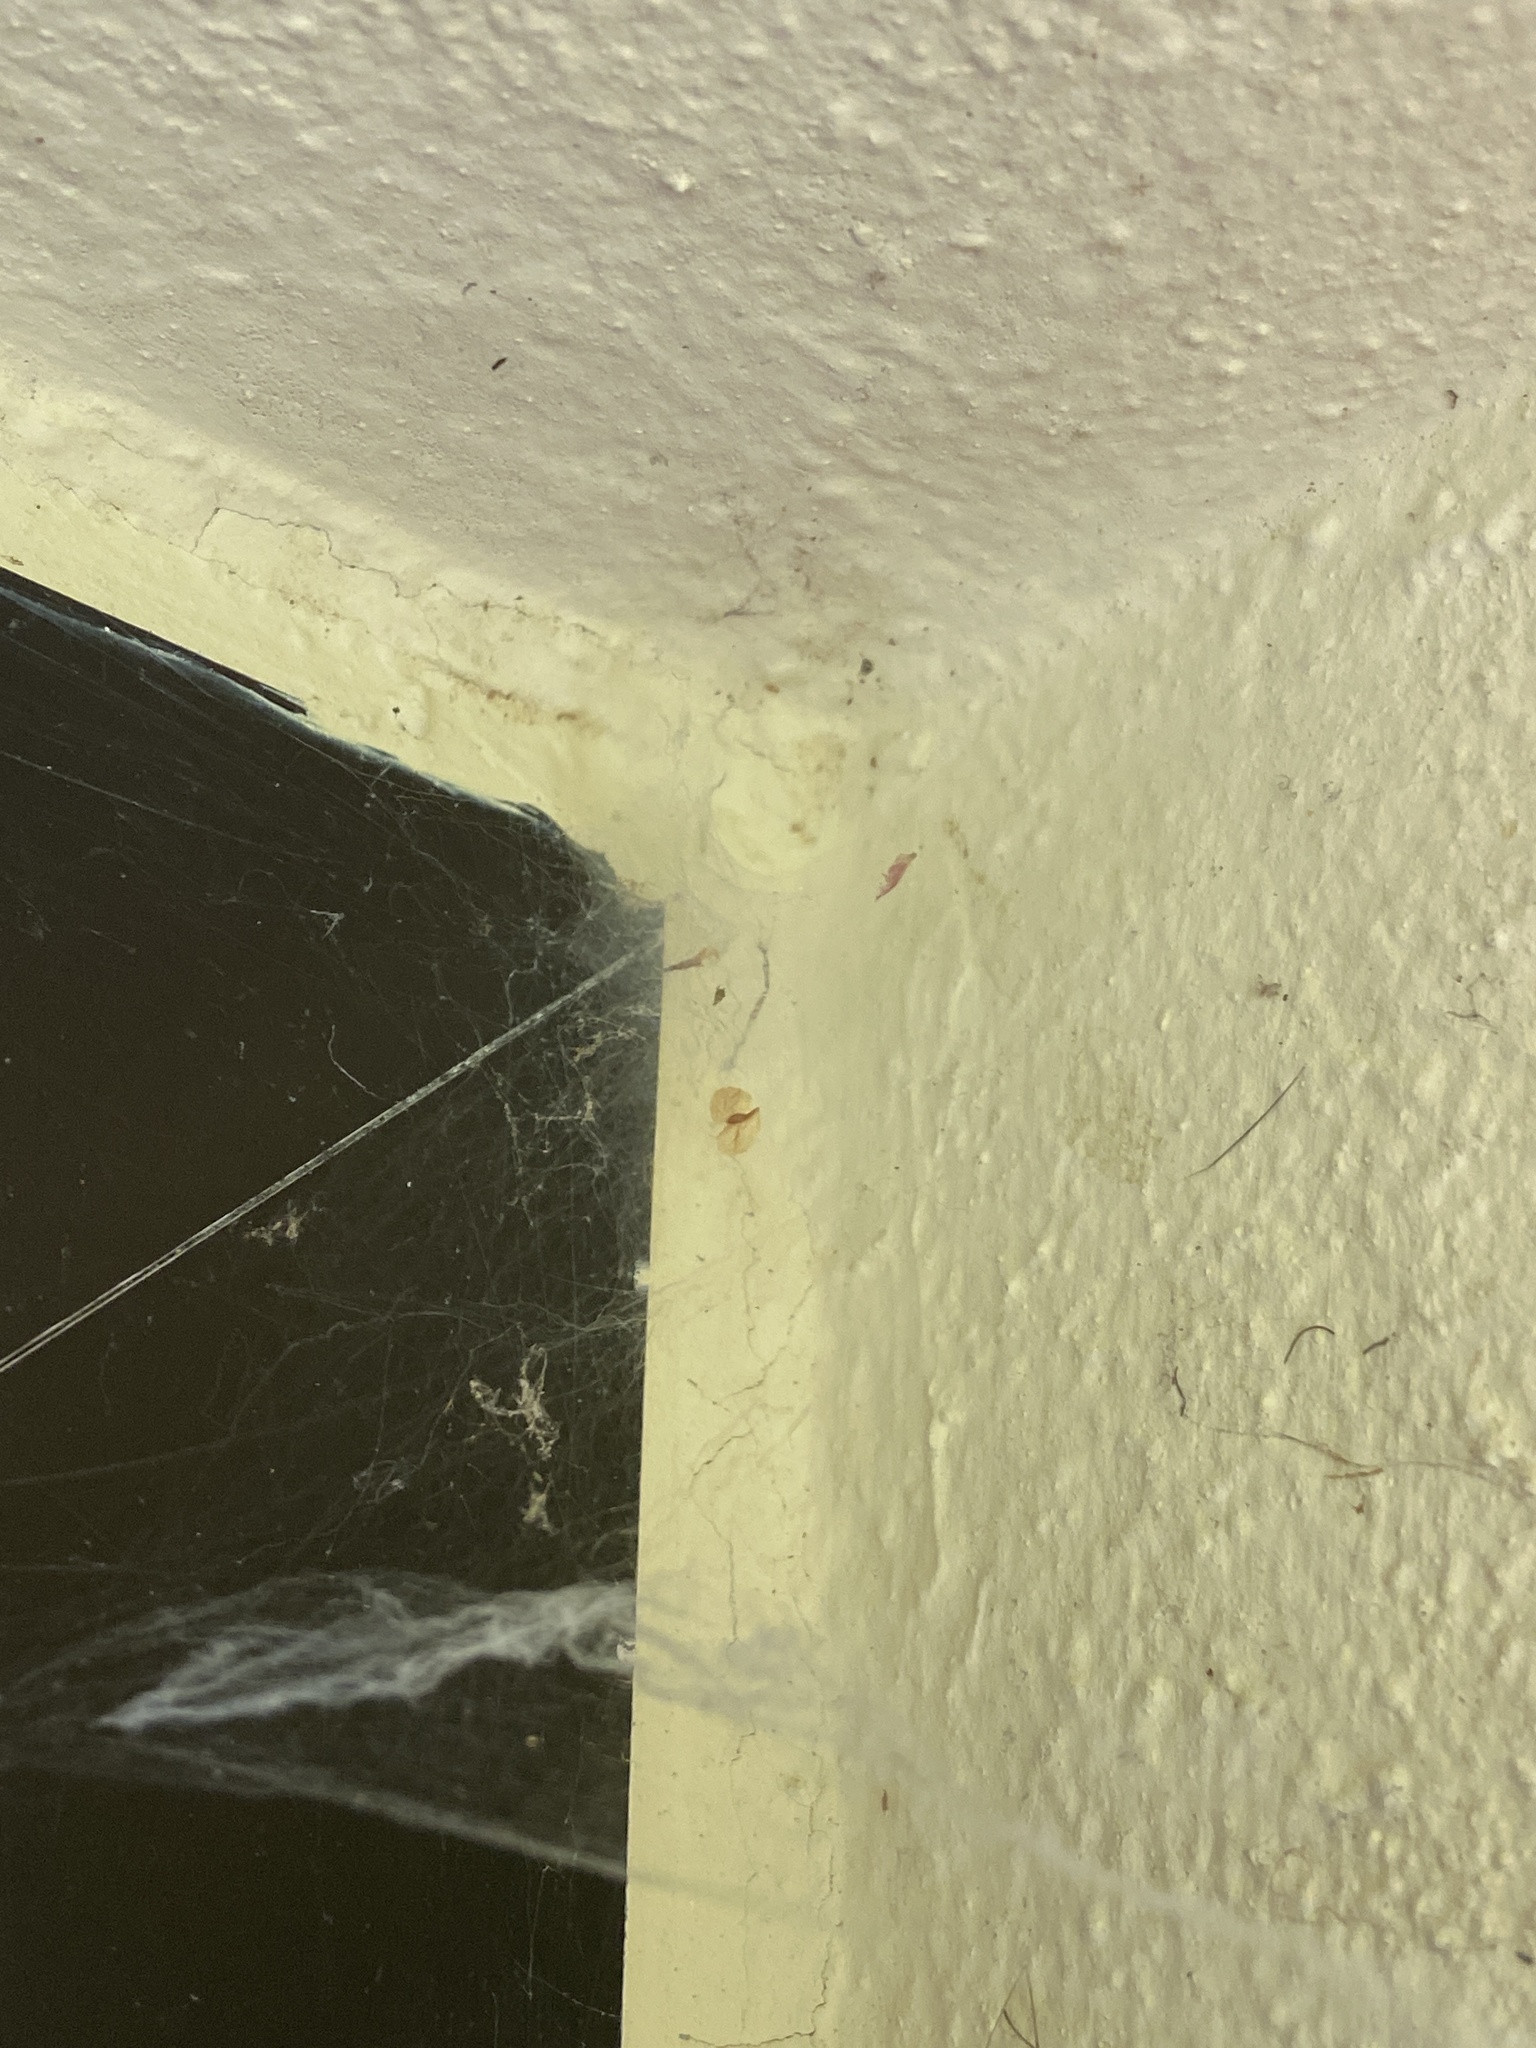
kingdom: Animalia
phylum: Arthropoda
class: Arachnida
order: Araneae
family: Agelenidae
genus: Tegenaria
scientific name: Tegenaria ferruginea
